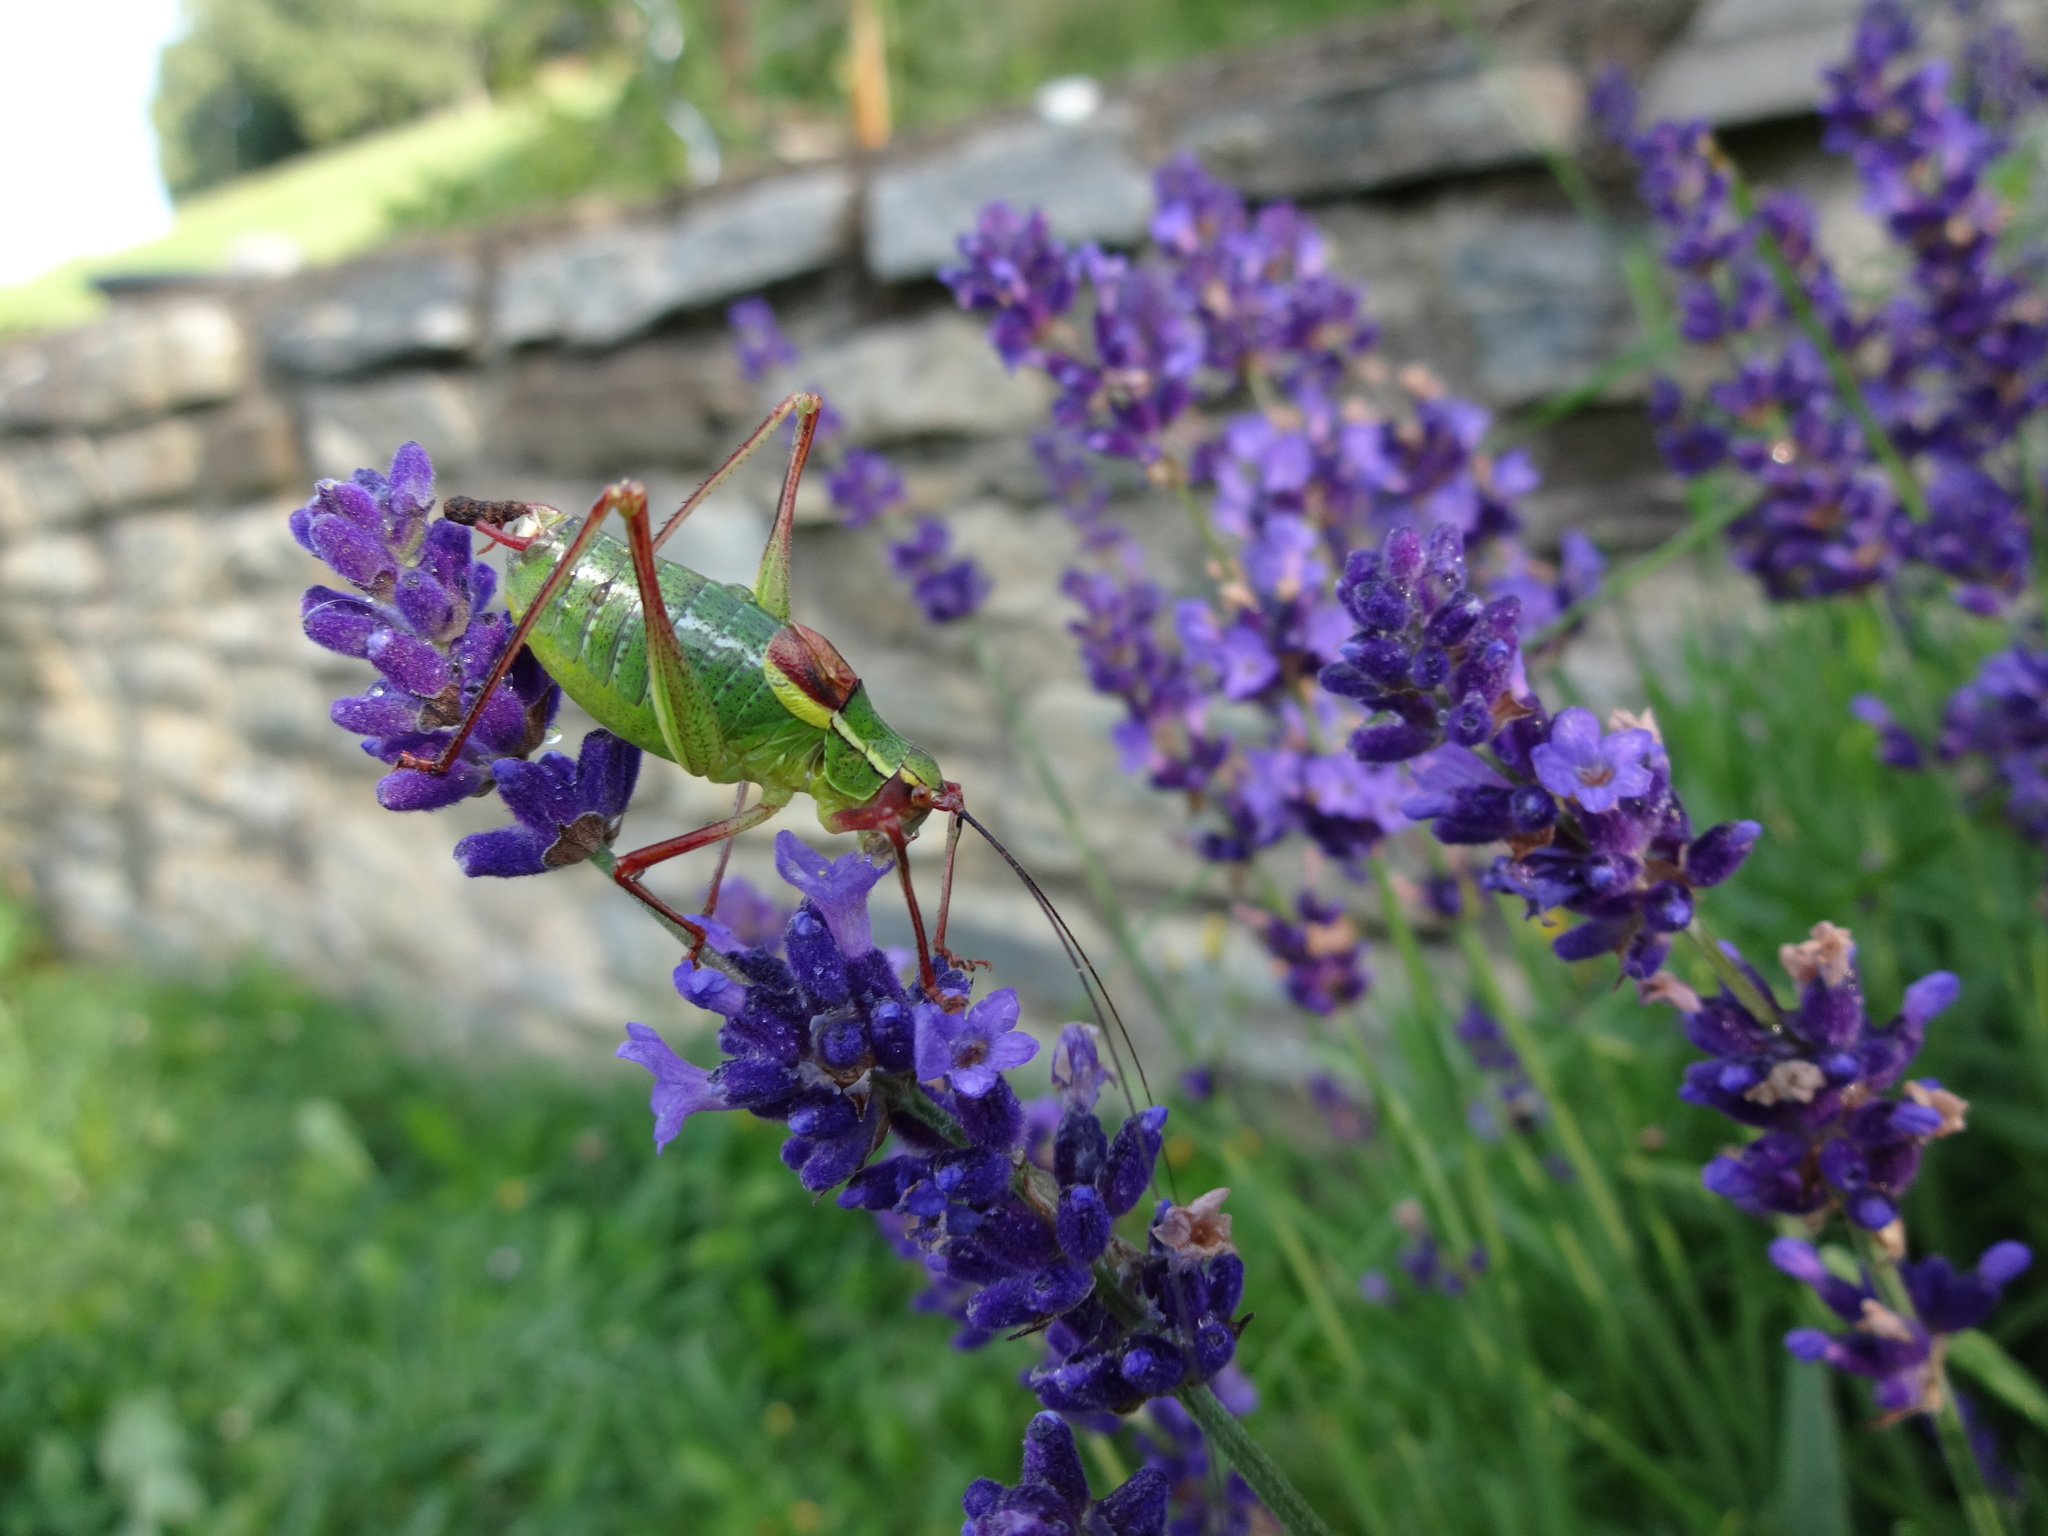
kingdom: Animalia
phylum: Arthropoda
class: Insecta
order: Orthoptera
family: Tettigoniidae
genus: Barbitistes
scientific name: Barbitistes serricauda
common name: Saw-tailed bush-cricket
